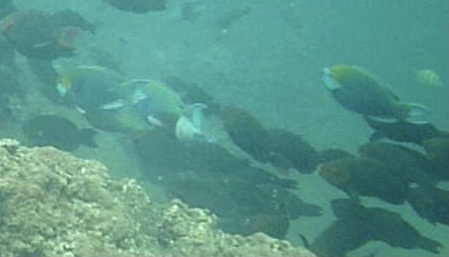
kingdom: Animalia
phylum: Chordata
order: Perciformes
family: Scaridae
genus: Scarus
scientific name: Scarus prasiognathos
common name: Singapore parrotfish
